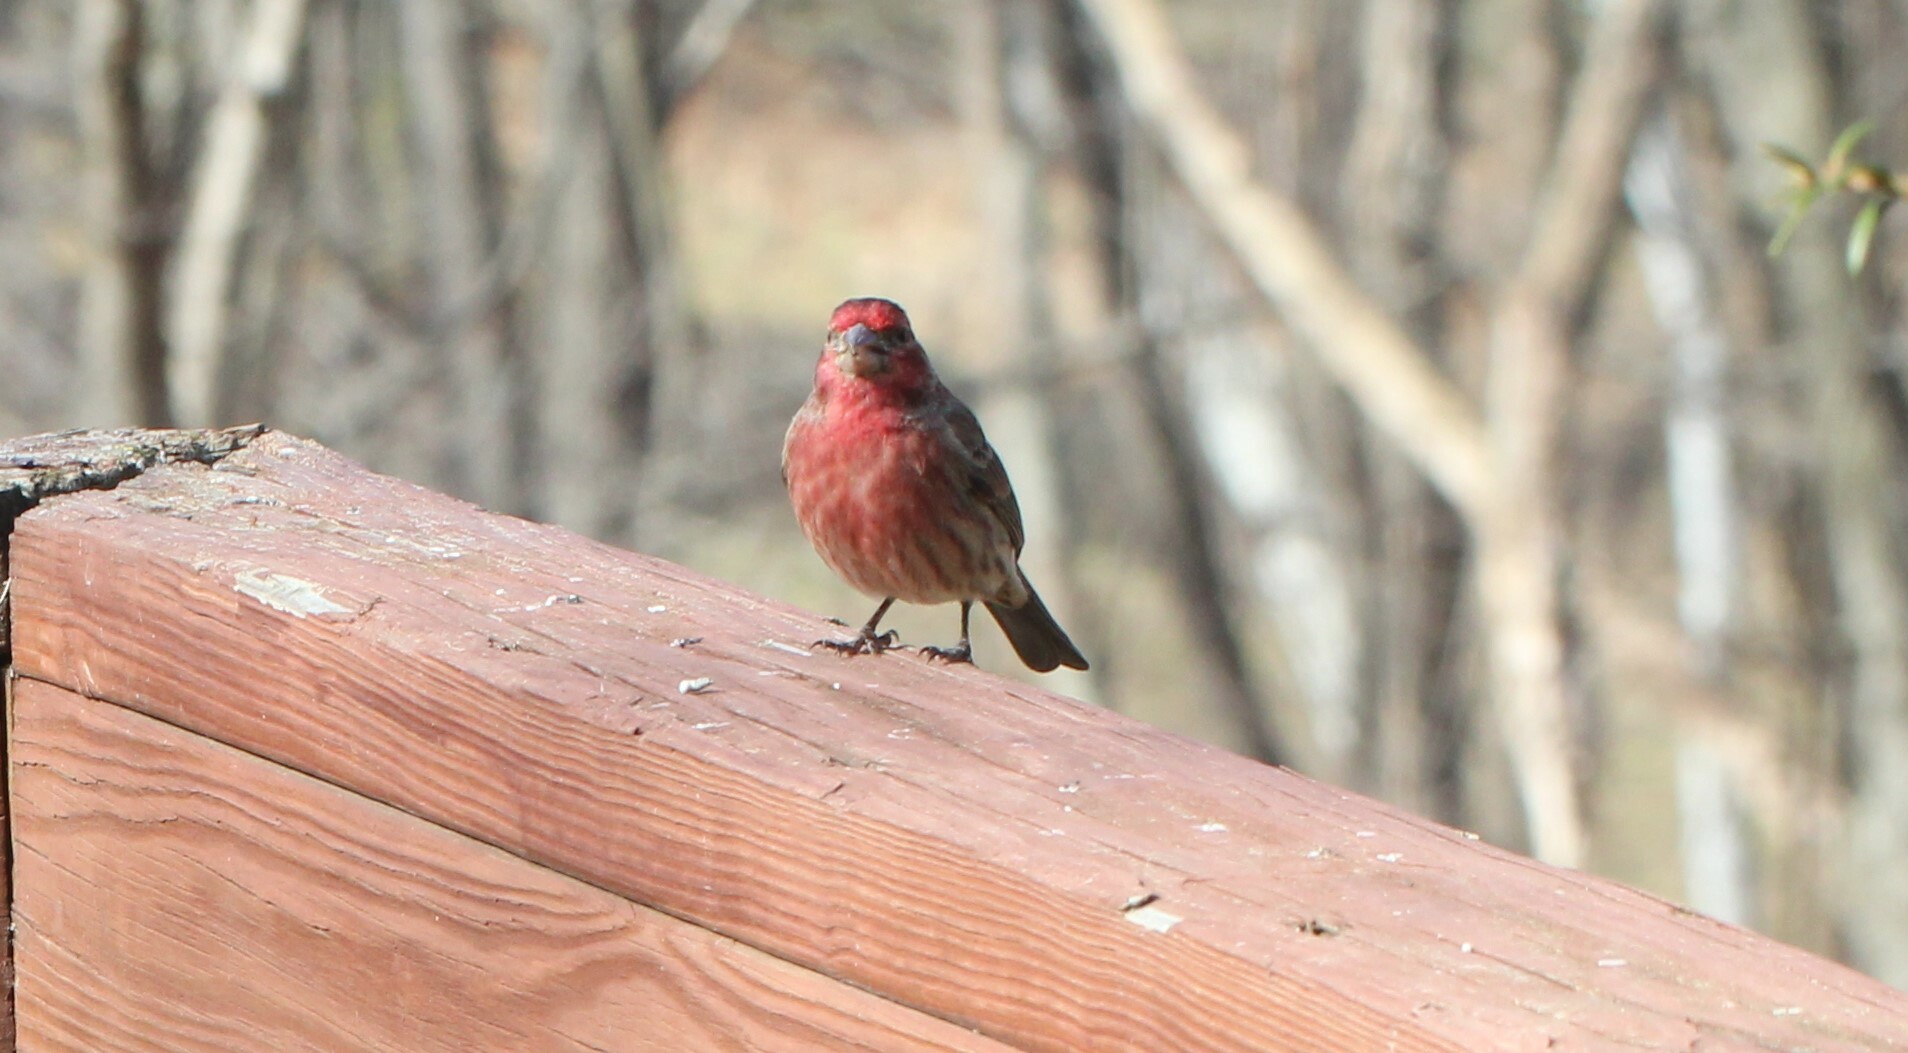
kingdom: Animalia
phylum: Chordata
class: Aves
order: Passeriformes
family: Fringillidae
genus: Haemorhous
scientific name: Haemorhous mexicanus
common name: House finch
